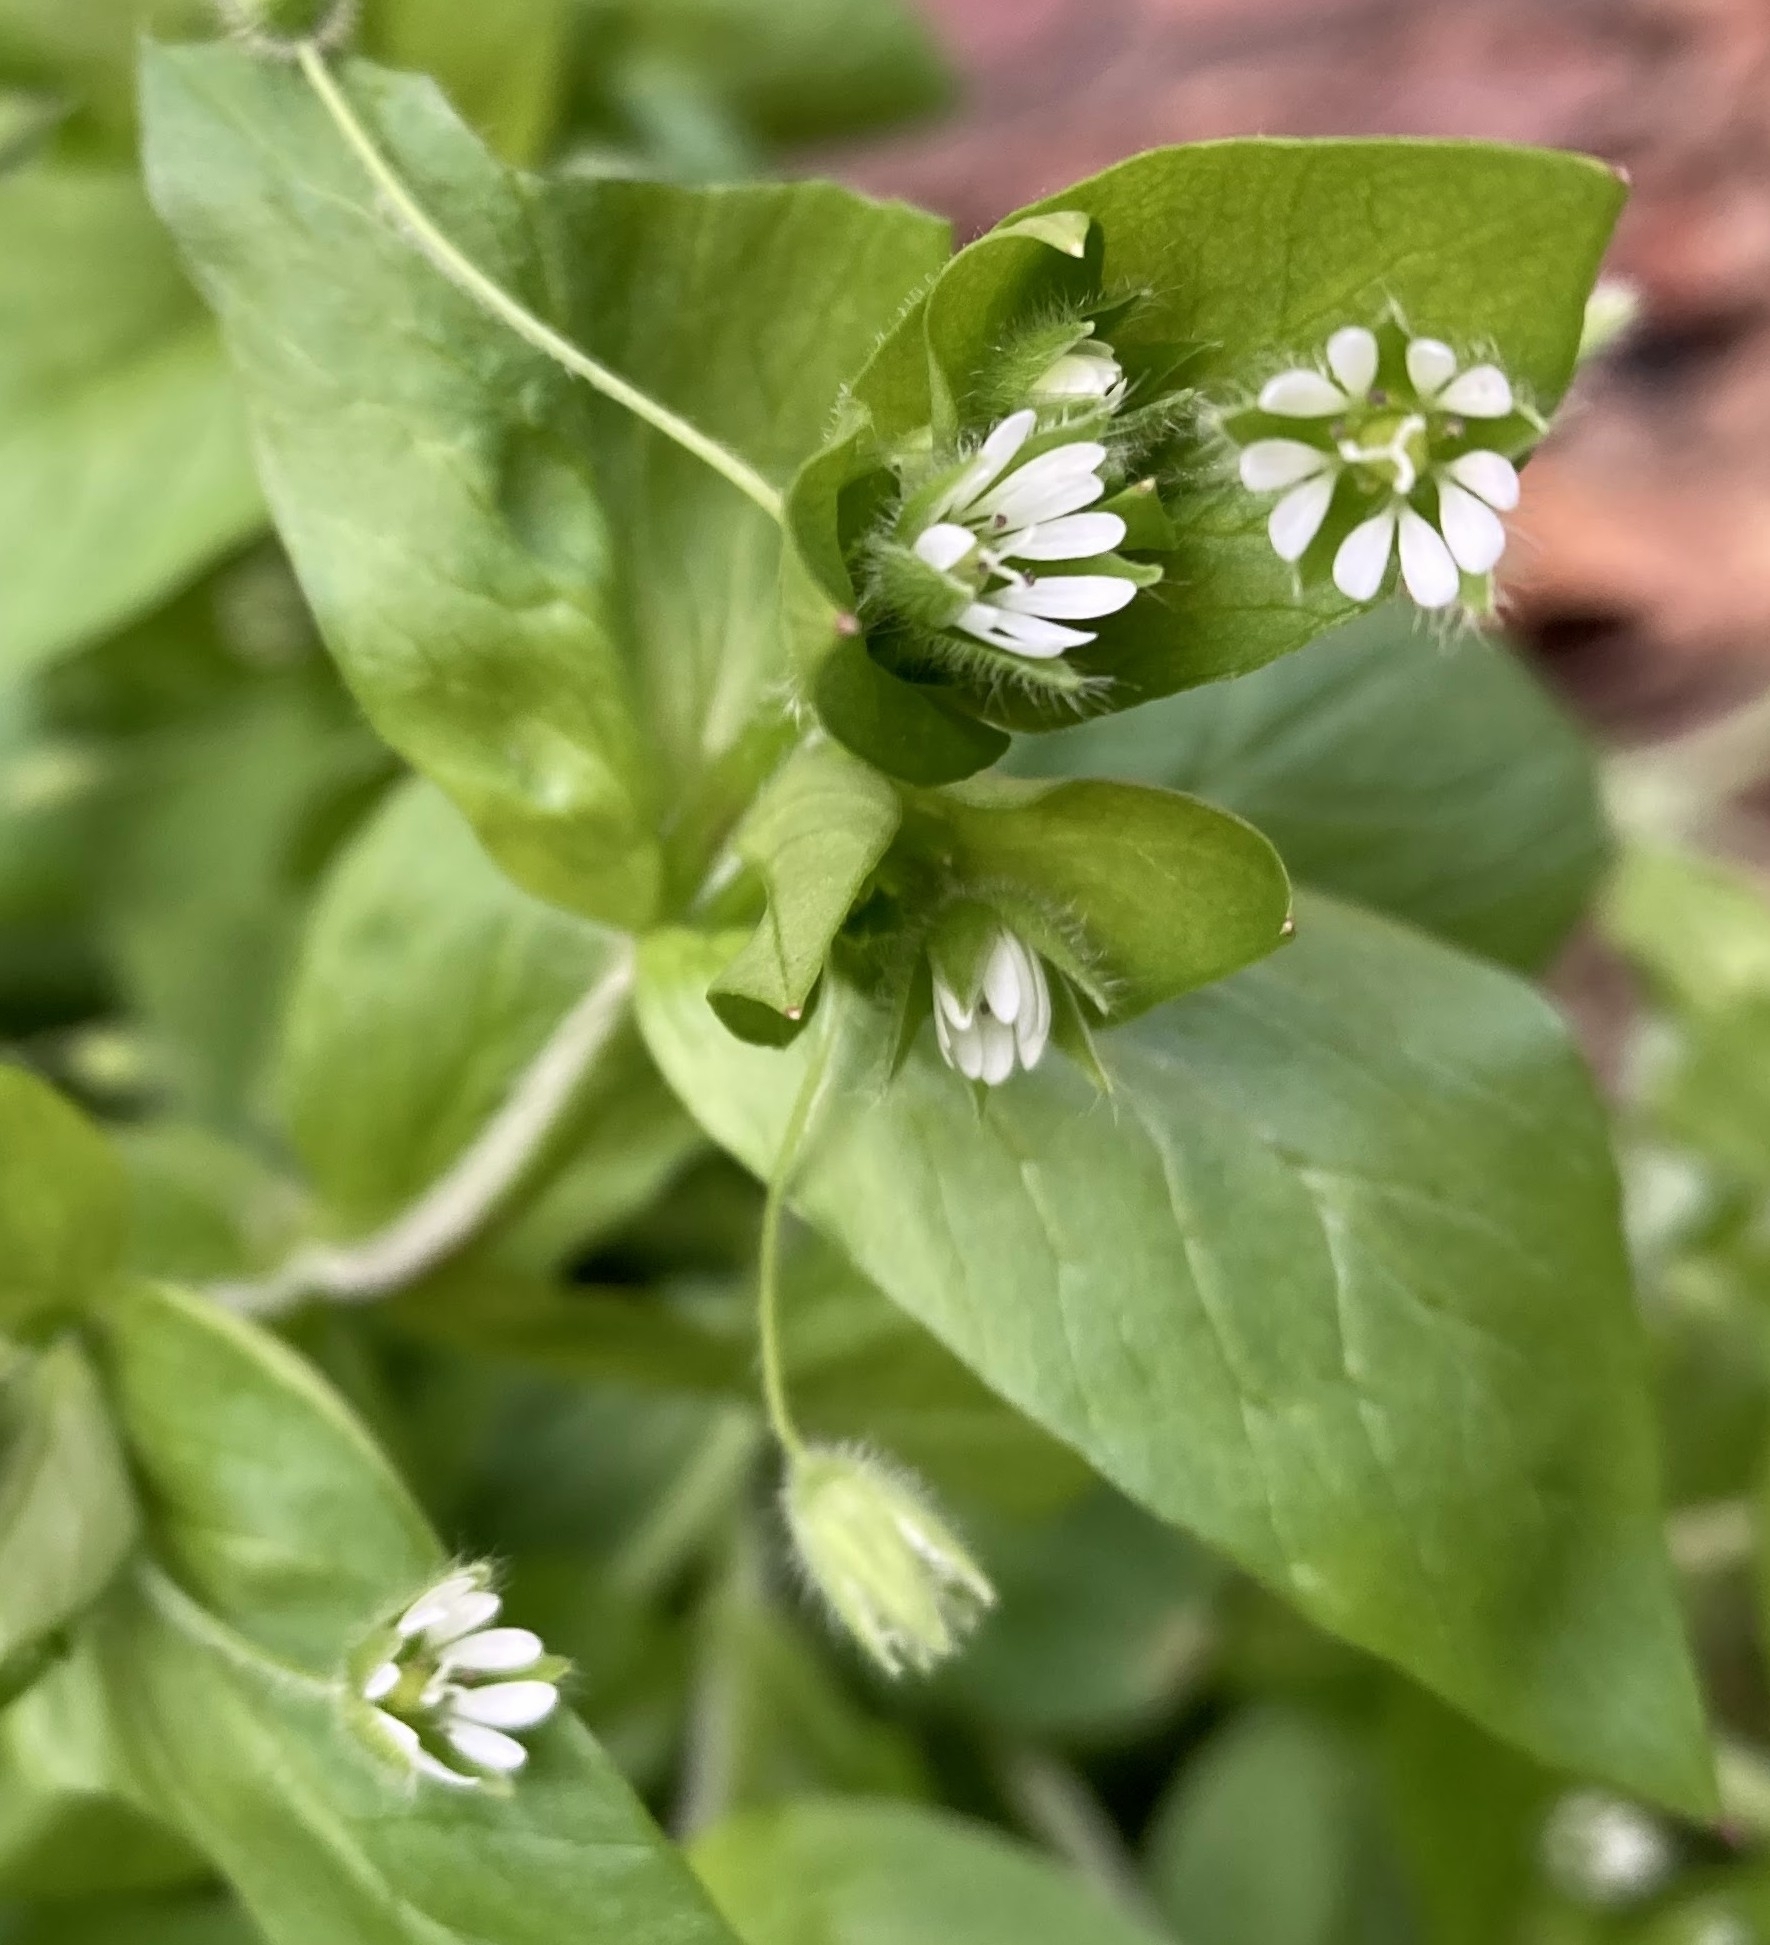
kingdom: Plantae
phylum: Tracheophyta
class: Magnoliopsida
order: Caryophyllales
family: Caryophyllaceae
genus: Stellaria
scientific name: Stellaria media
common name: Common chickweed
